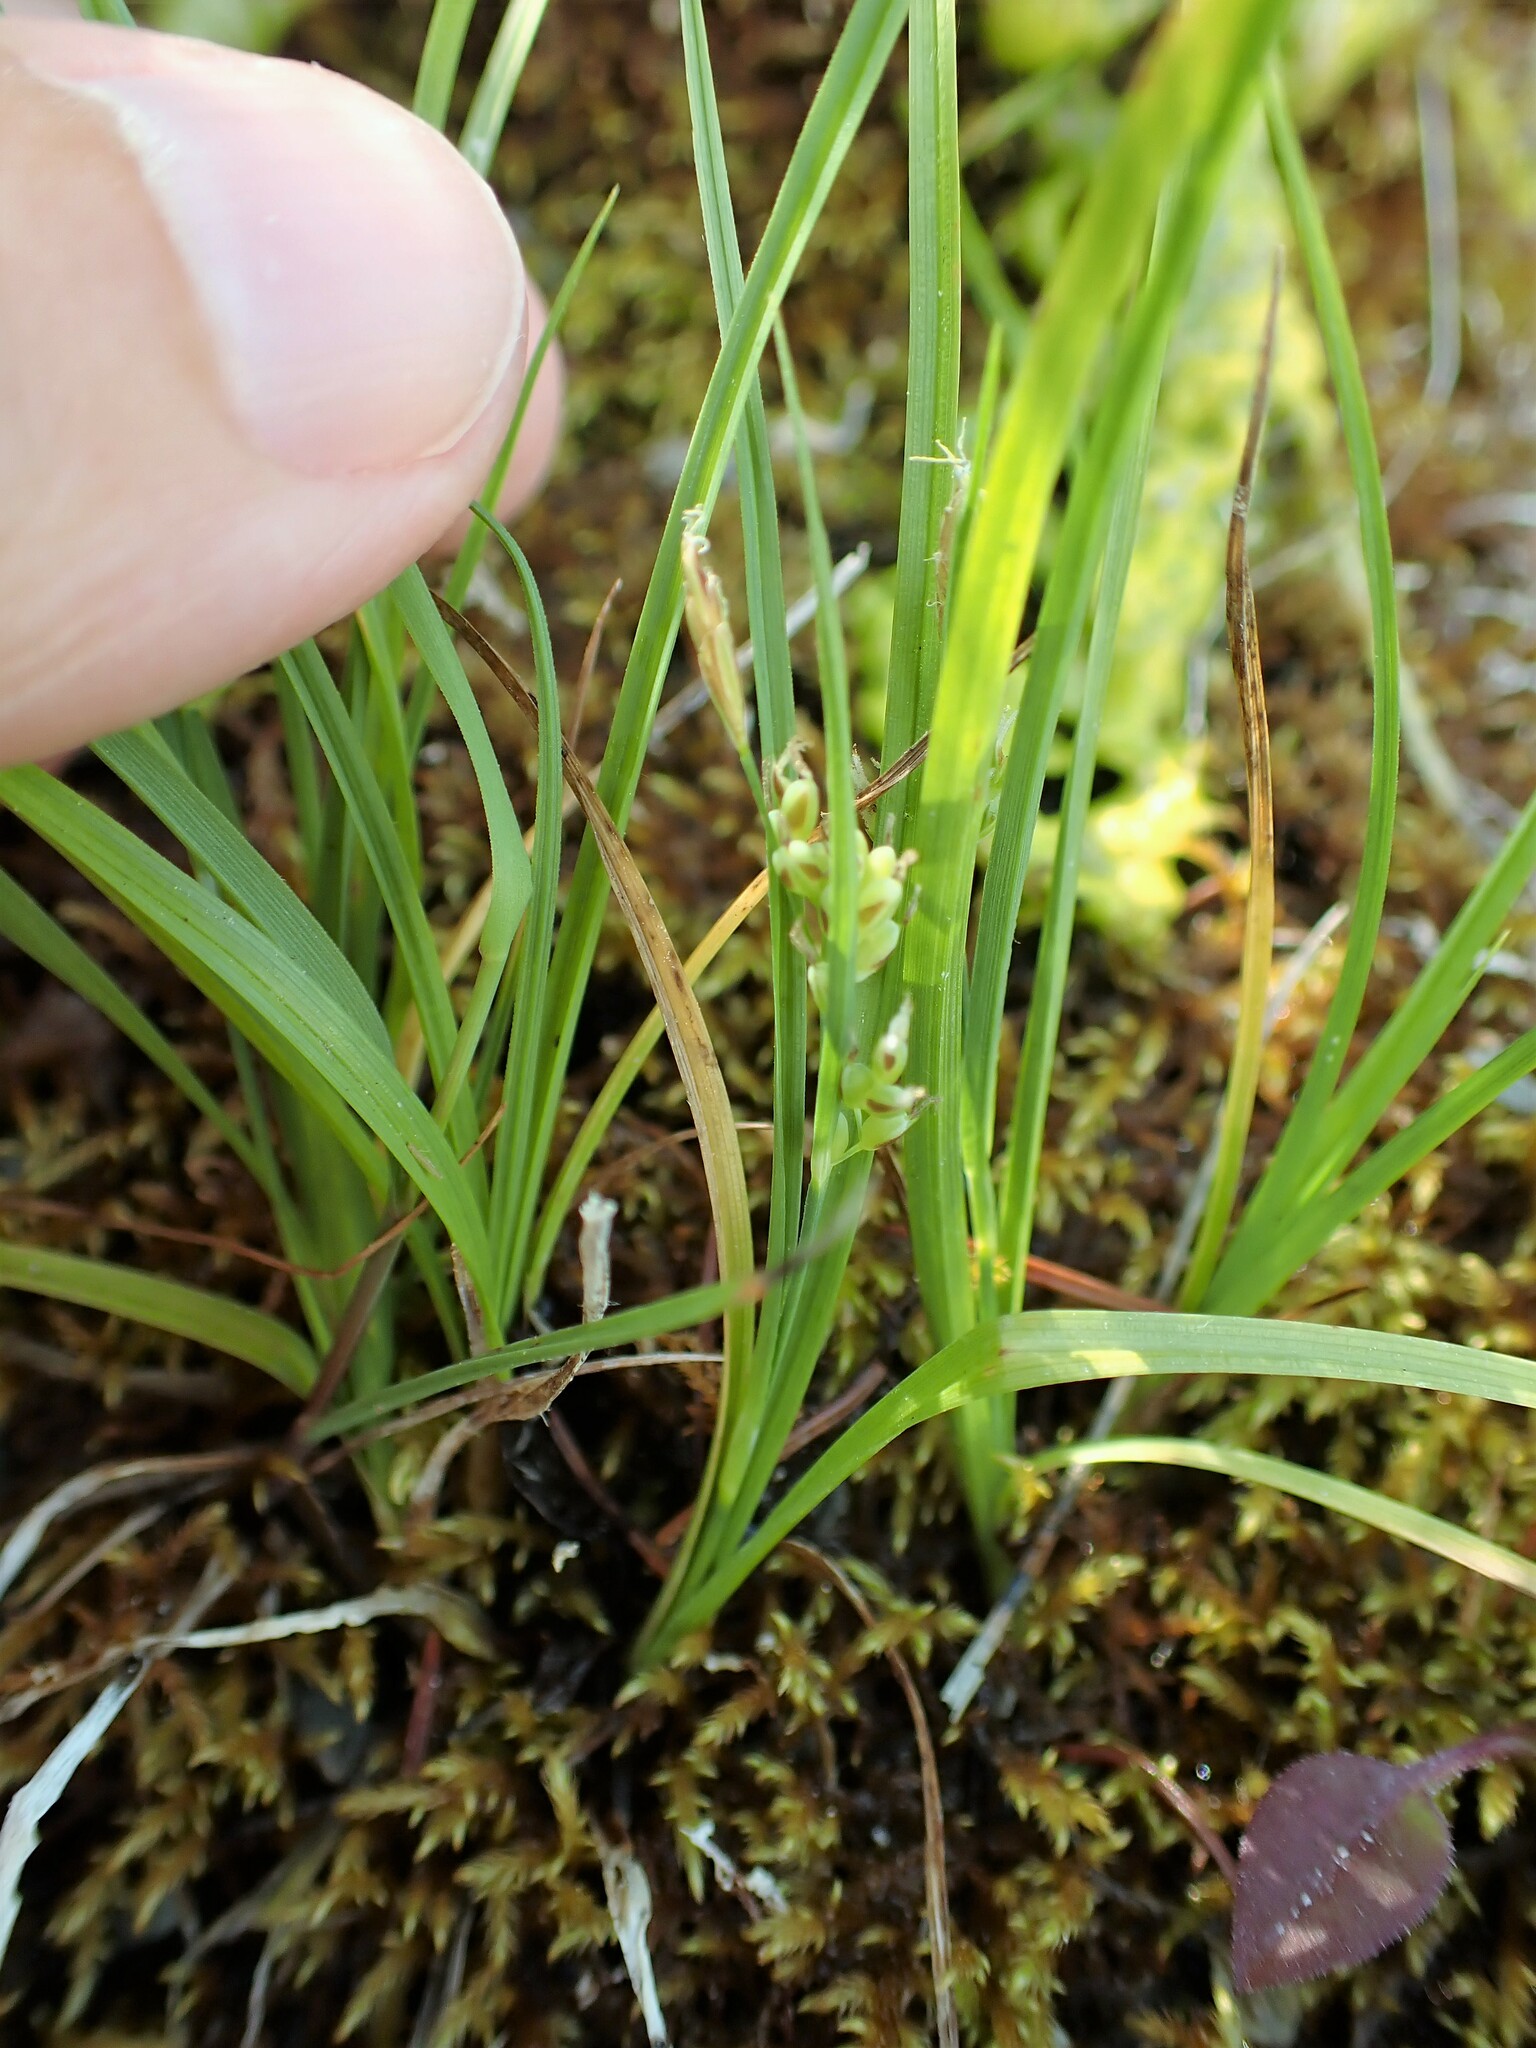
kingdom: Plantae
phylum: Tracheophyta
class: Liliopsida
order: Poales
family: Cyperaceae
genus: Carex
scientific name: Carex aurea
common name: Golden sedge
